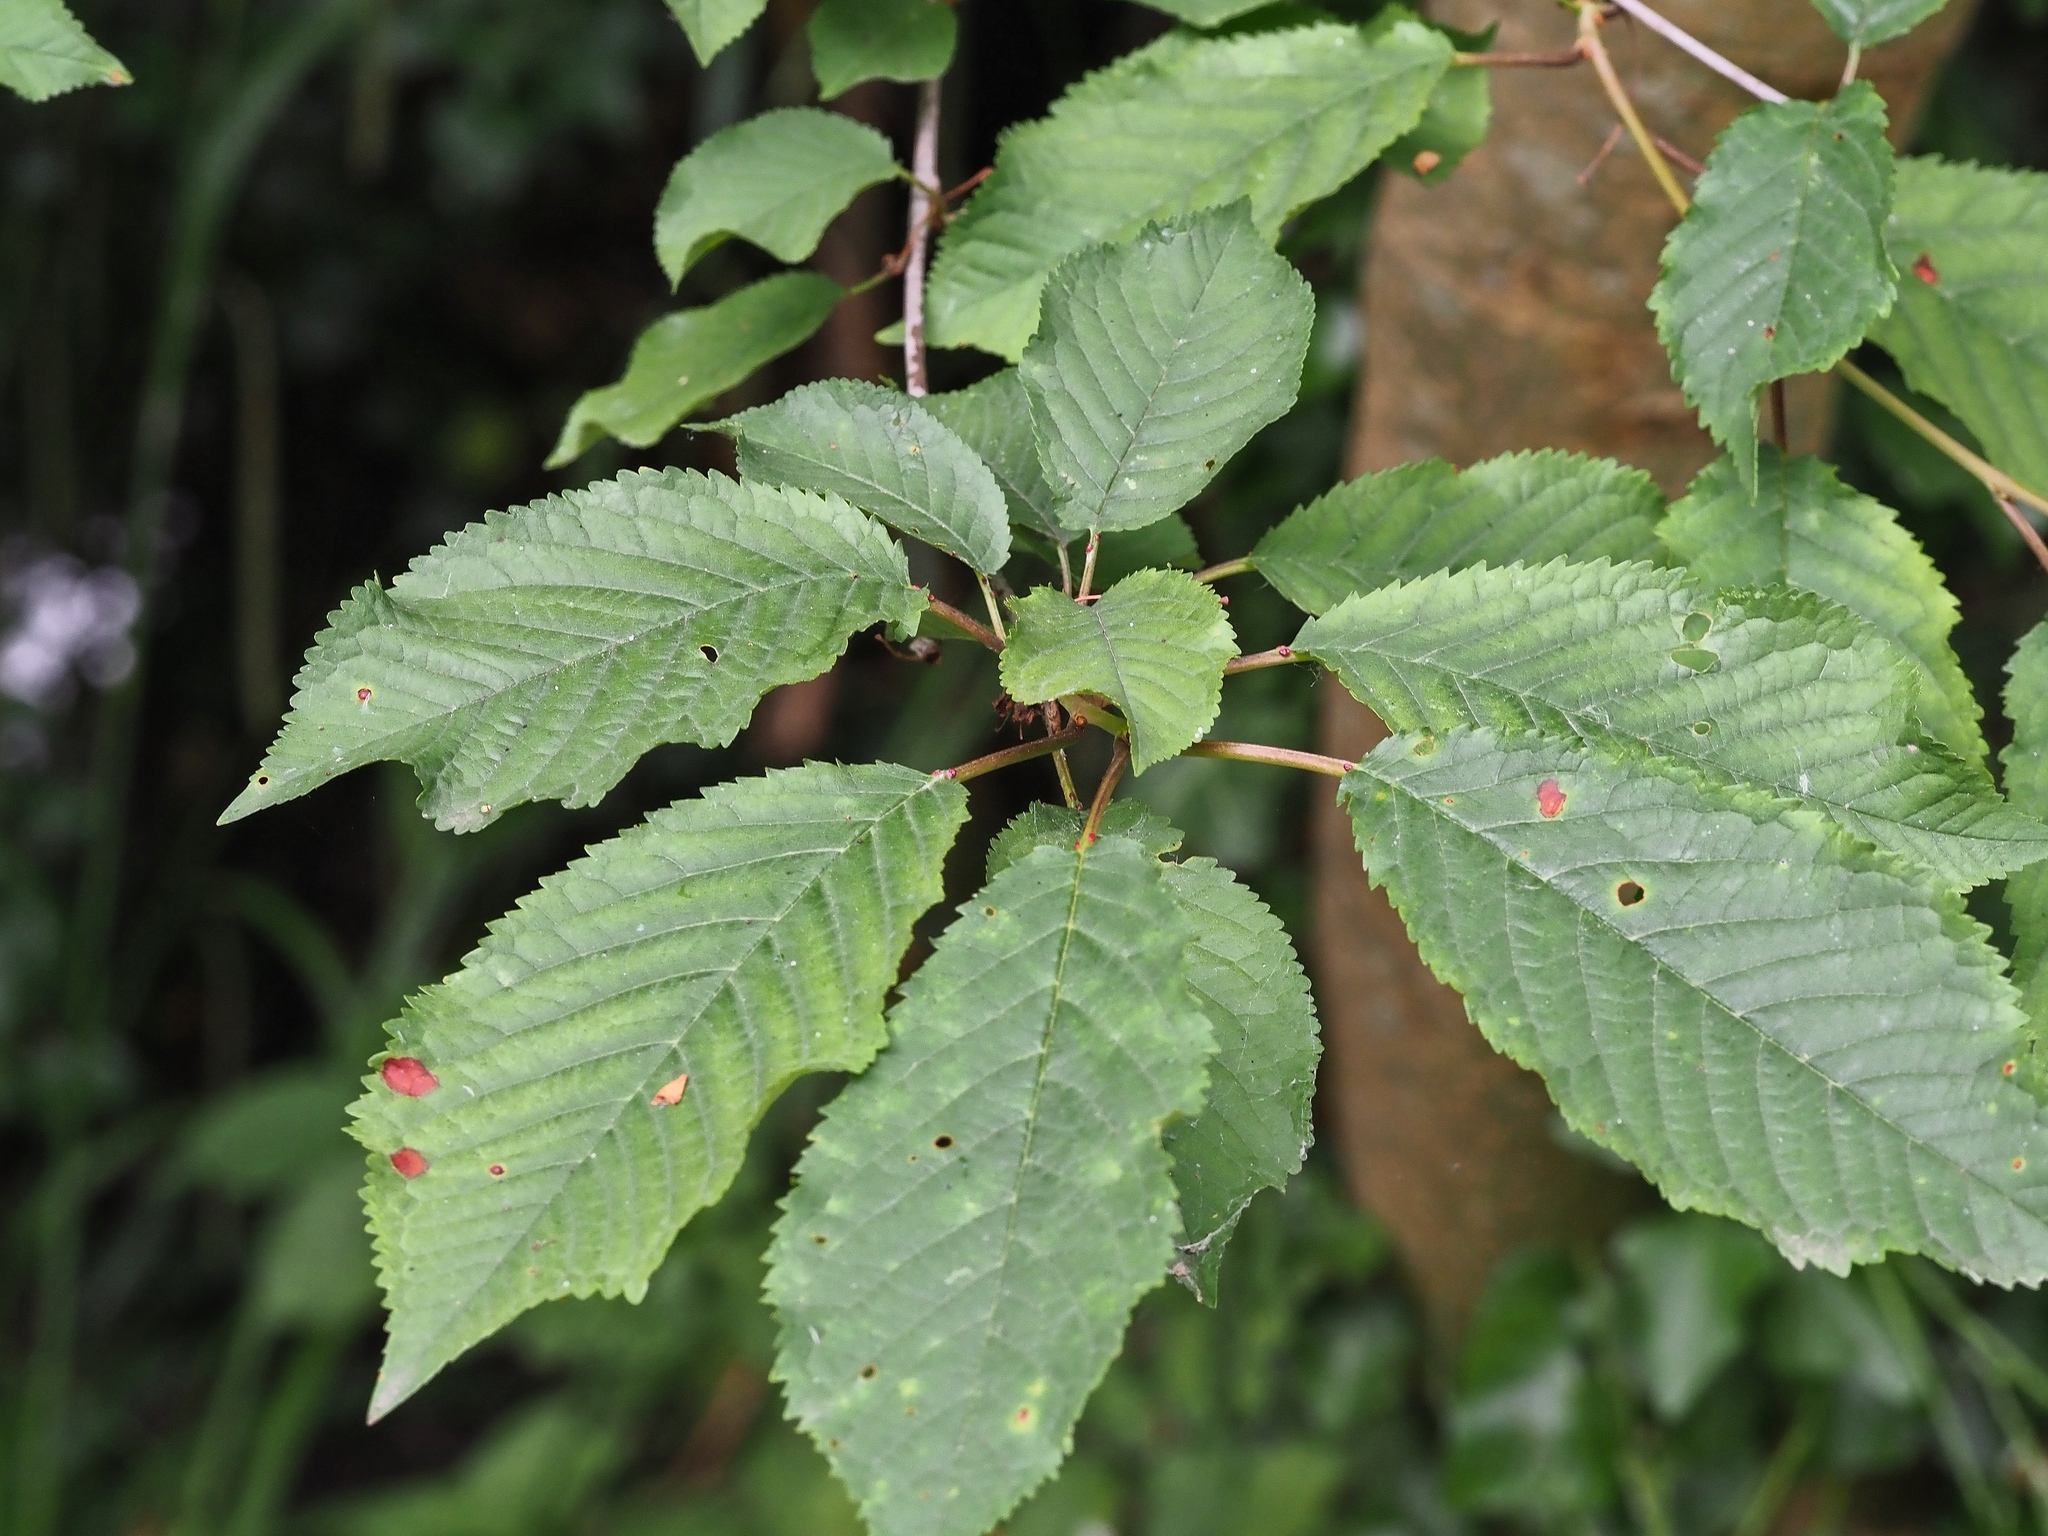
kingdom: Plantae
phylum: Tracheophyta
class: Magnoliopsida
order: Rosales
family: Rosaceae
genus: Prunus
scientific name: Prunus avium
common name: Sweet cherry
